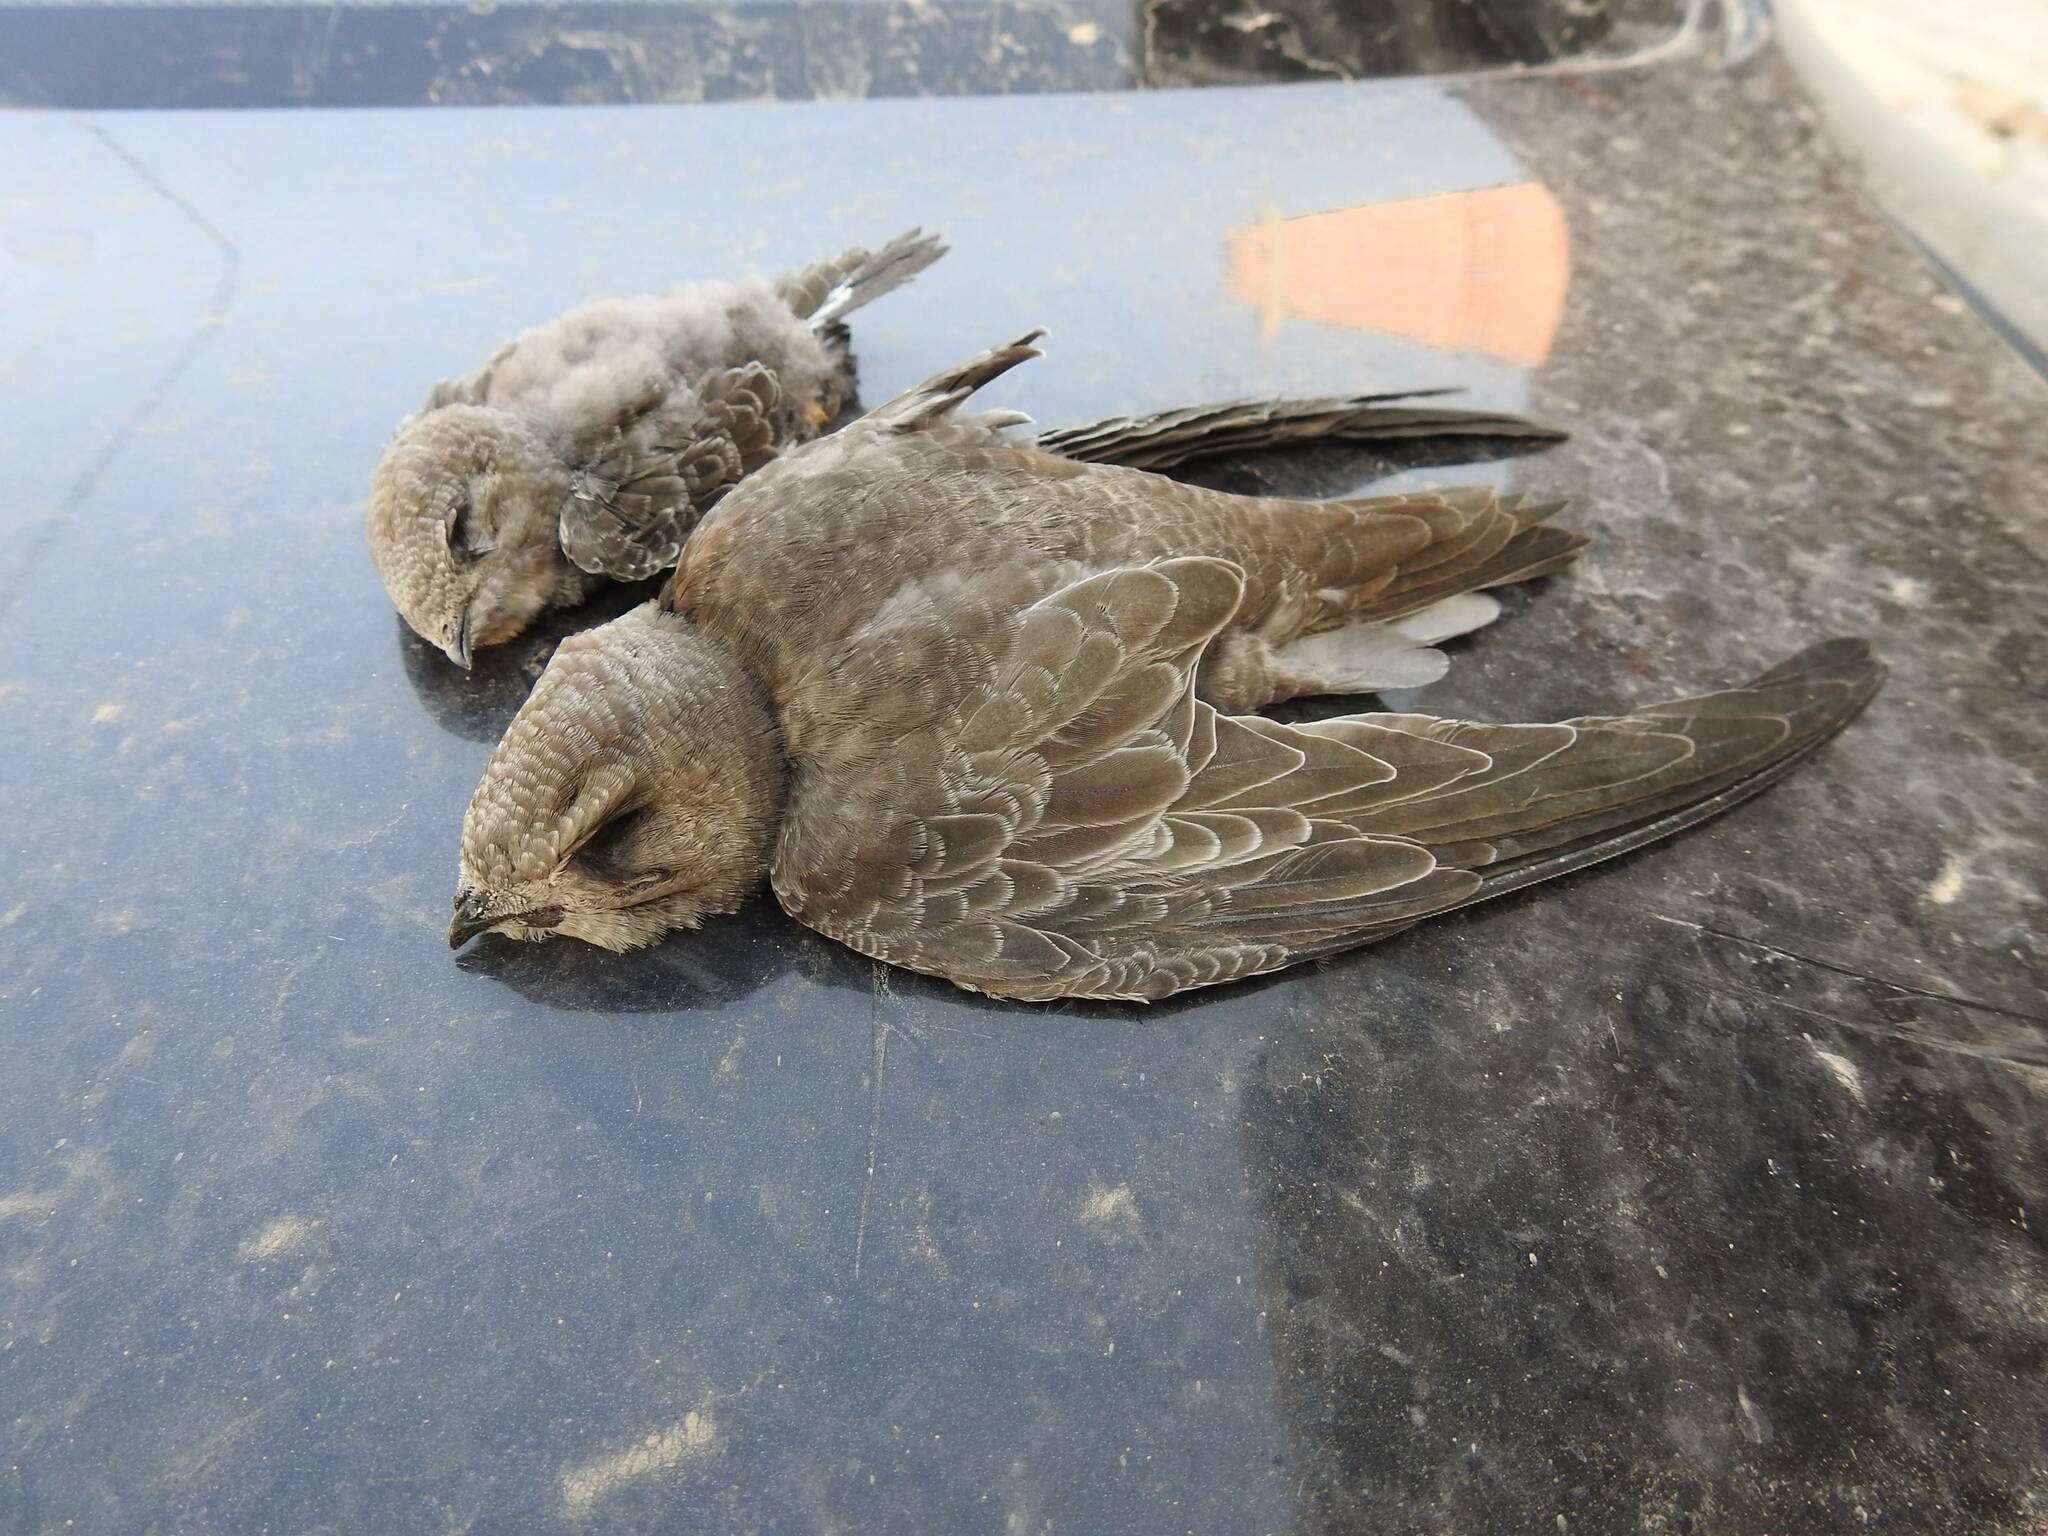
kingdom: Animalia
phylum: Chordata
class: Aves
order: Apodiformes
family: Apodidae
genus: Apus
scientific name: Apus pallidus
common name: Pallid swift
